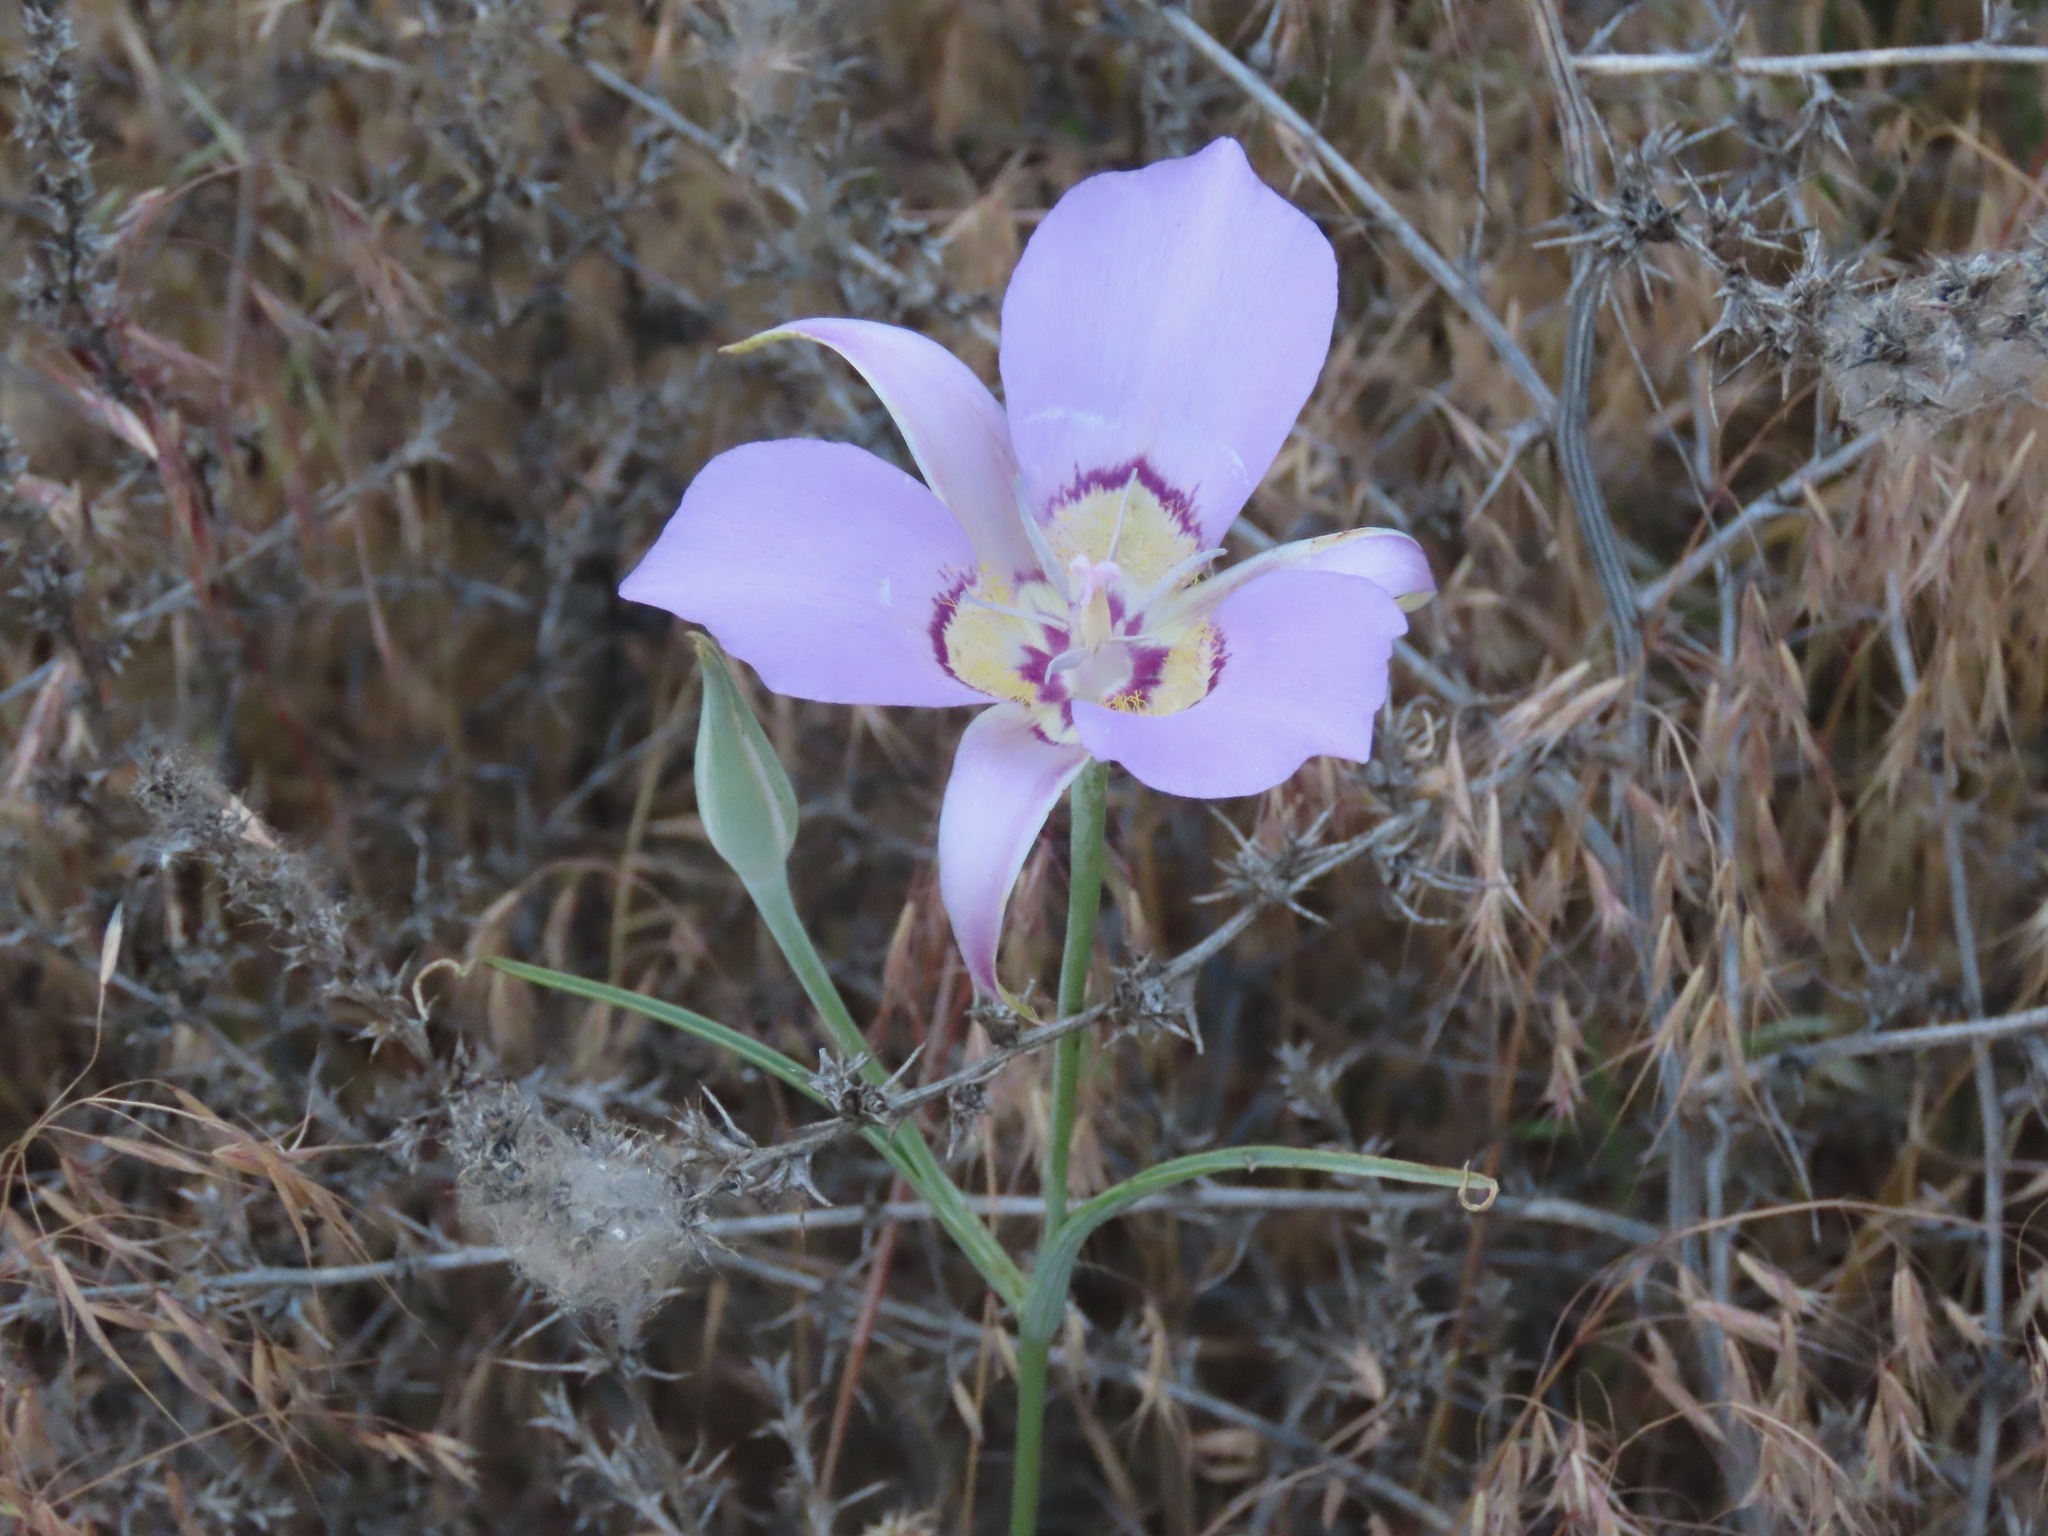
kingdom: Plantae
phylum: Tracheophyta
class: Liliopsida
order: Liliales
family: Liliaceae
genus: Calochortus
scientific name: Calochortus macrocarpus
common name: Green-band mariposa lily
